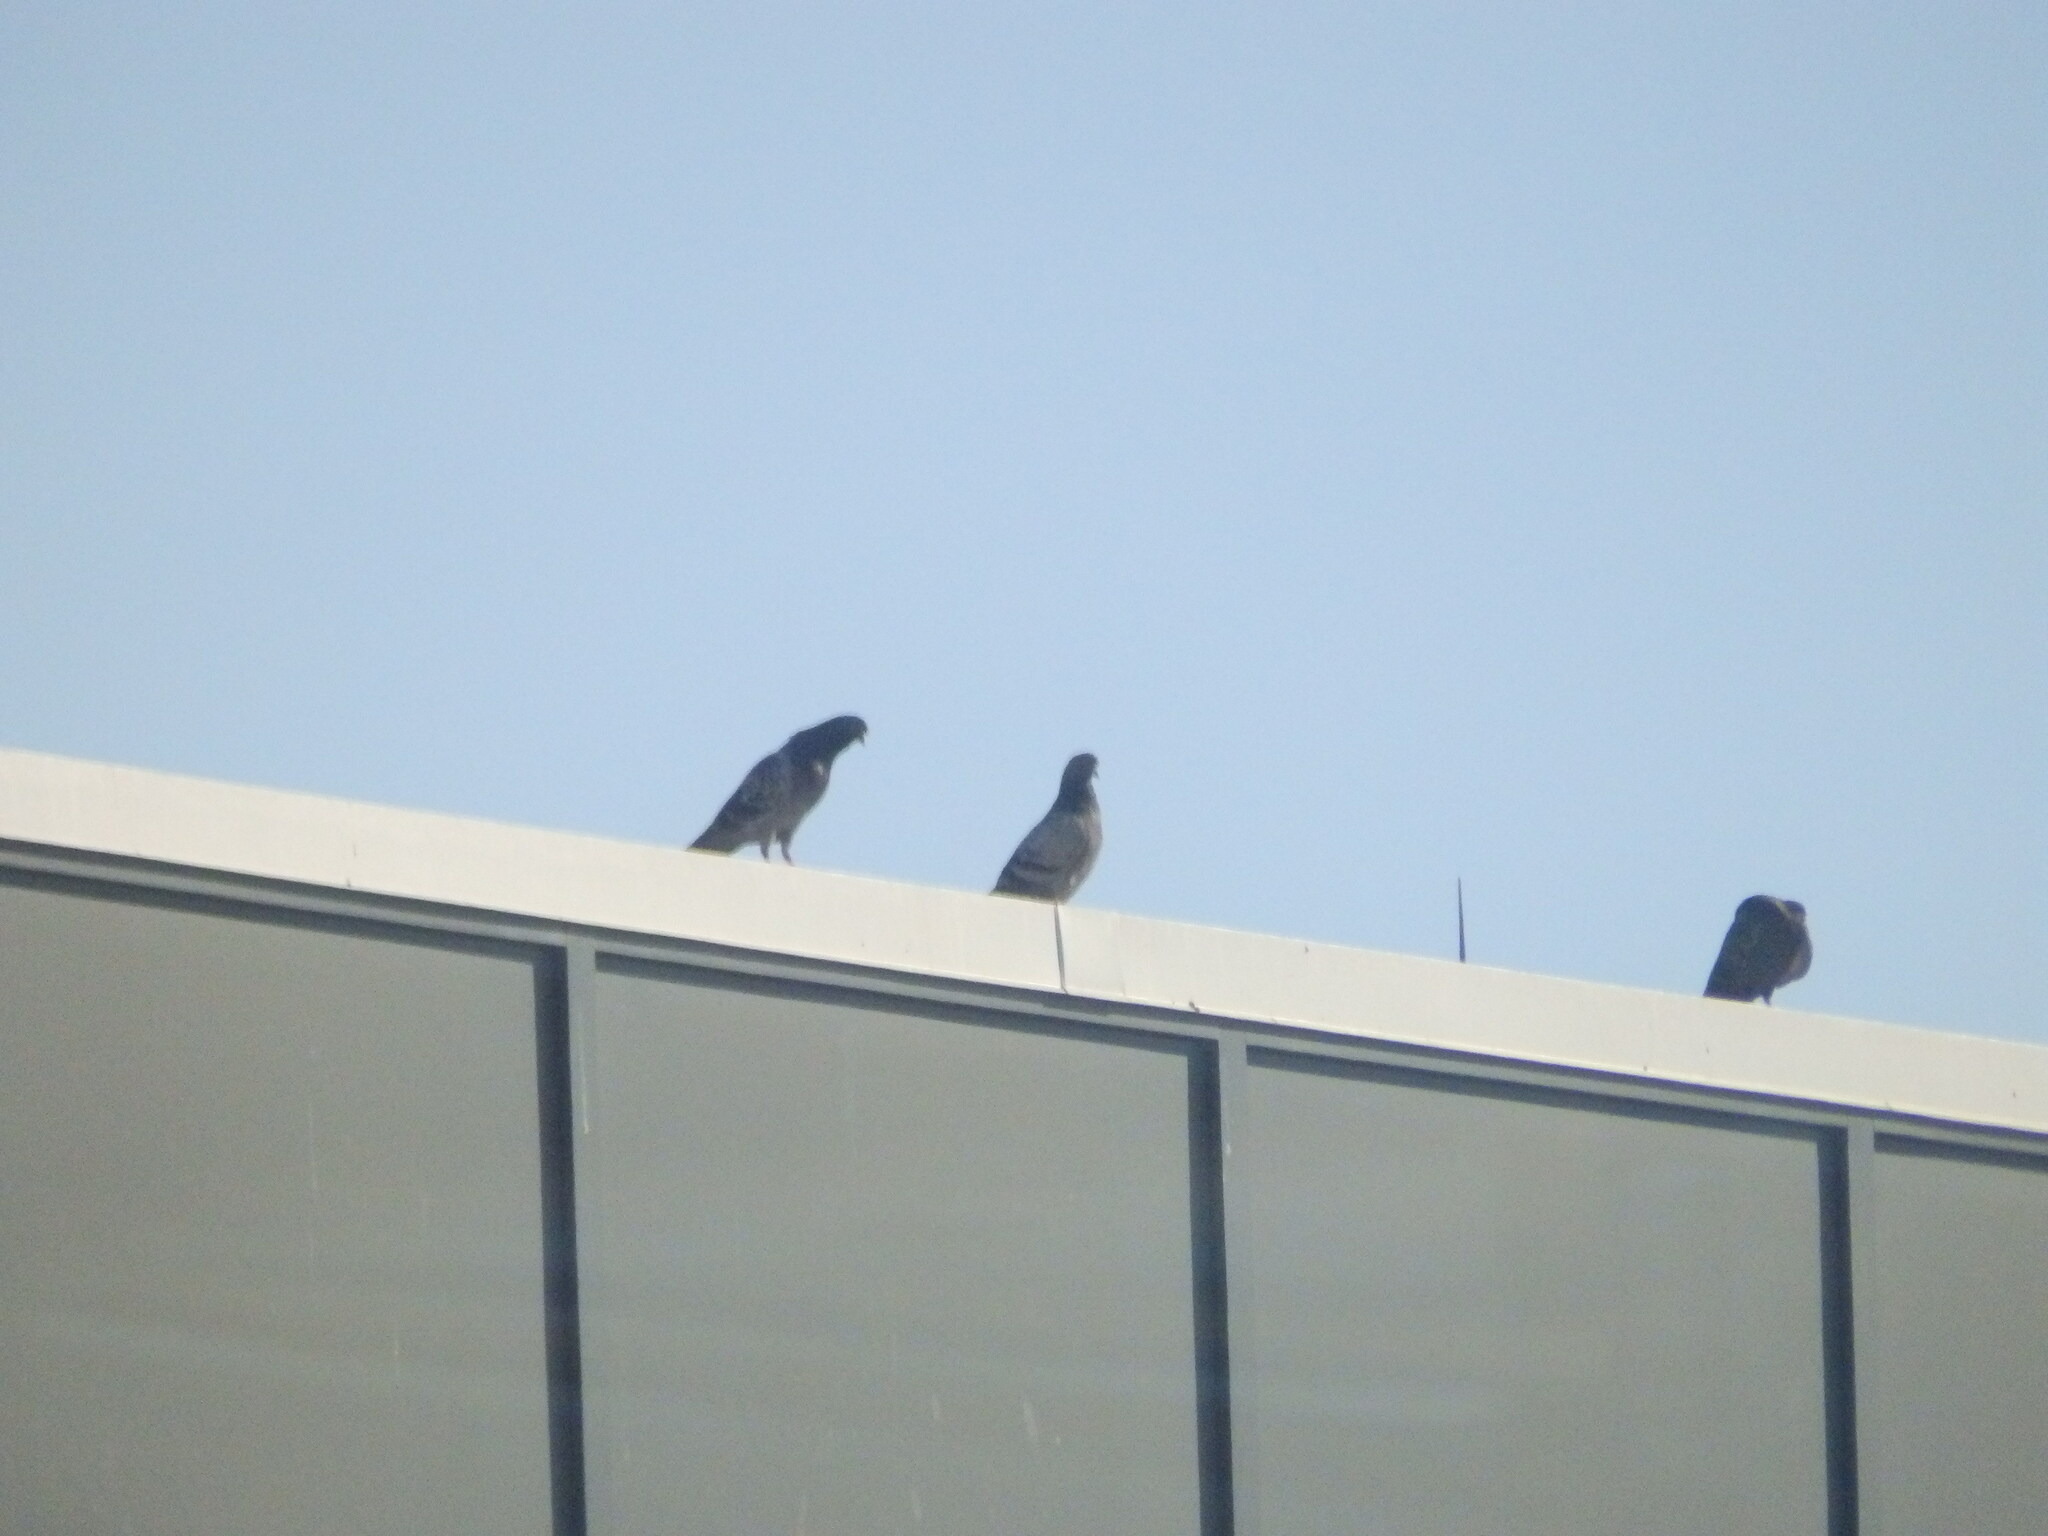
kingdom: Animalia
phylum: Chordata
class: Aves
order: Columbiformes
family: Columbidae
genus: Columba
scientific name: Columba livia
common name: Rock pigeon
